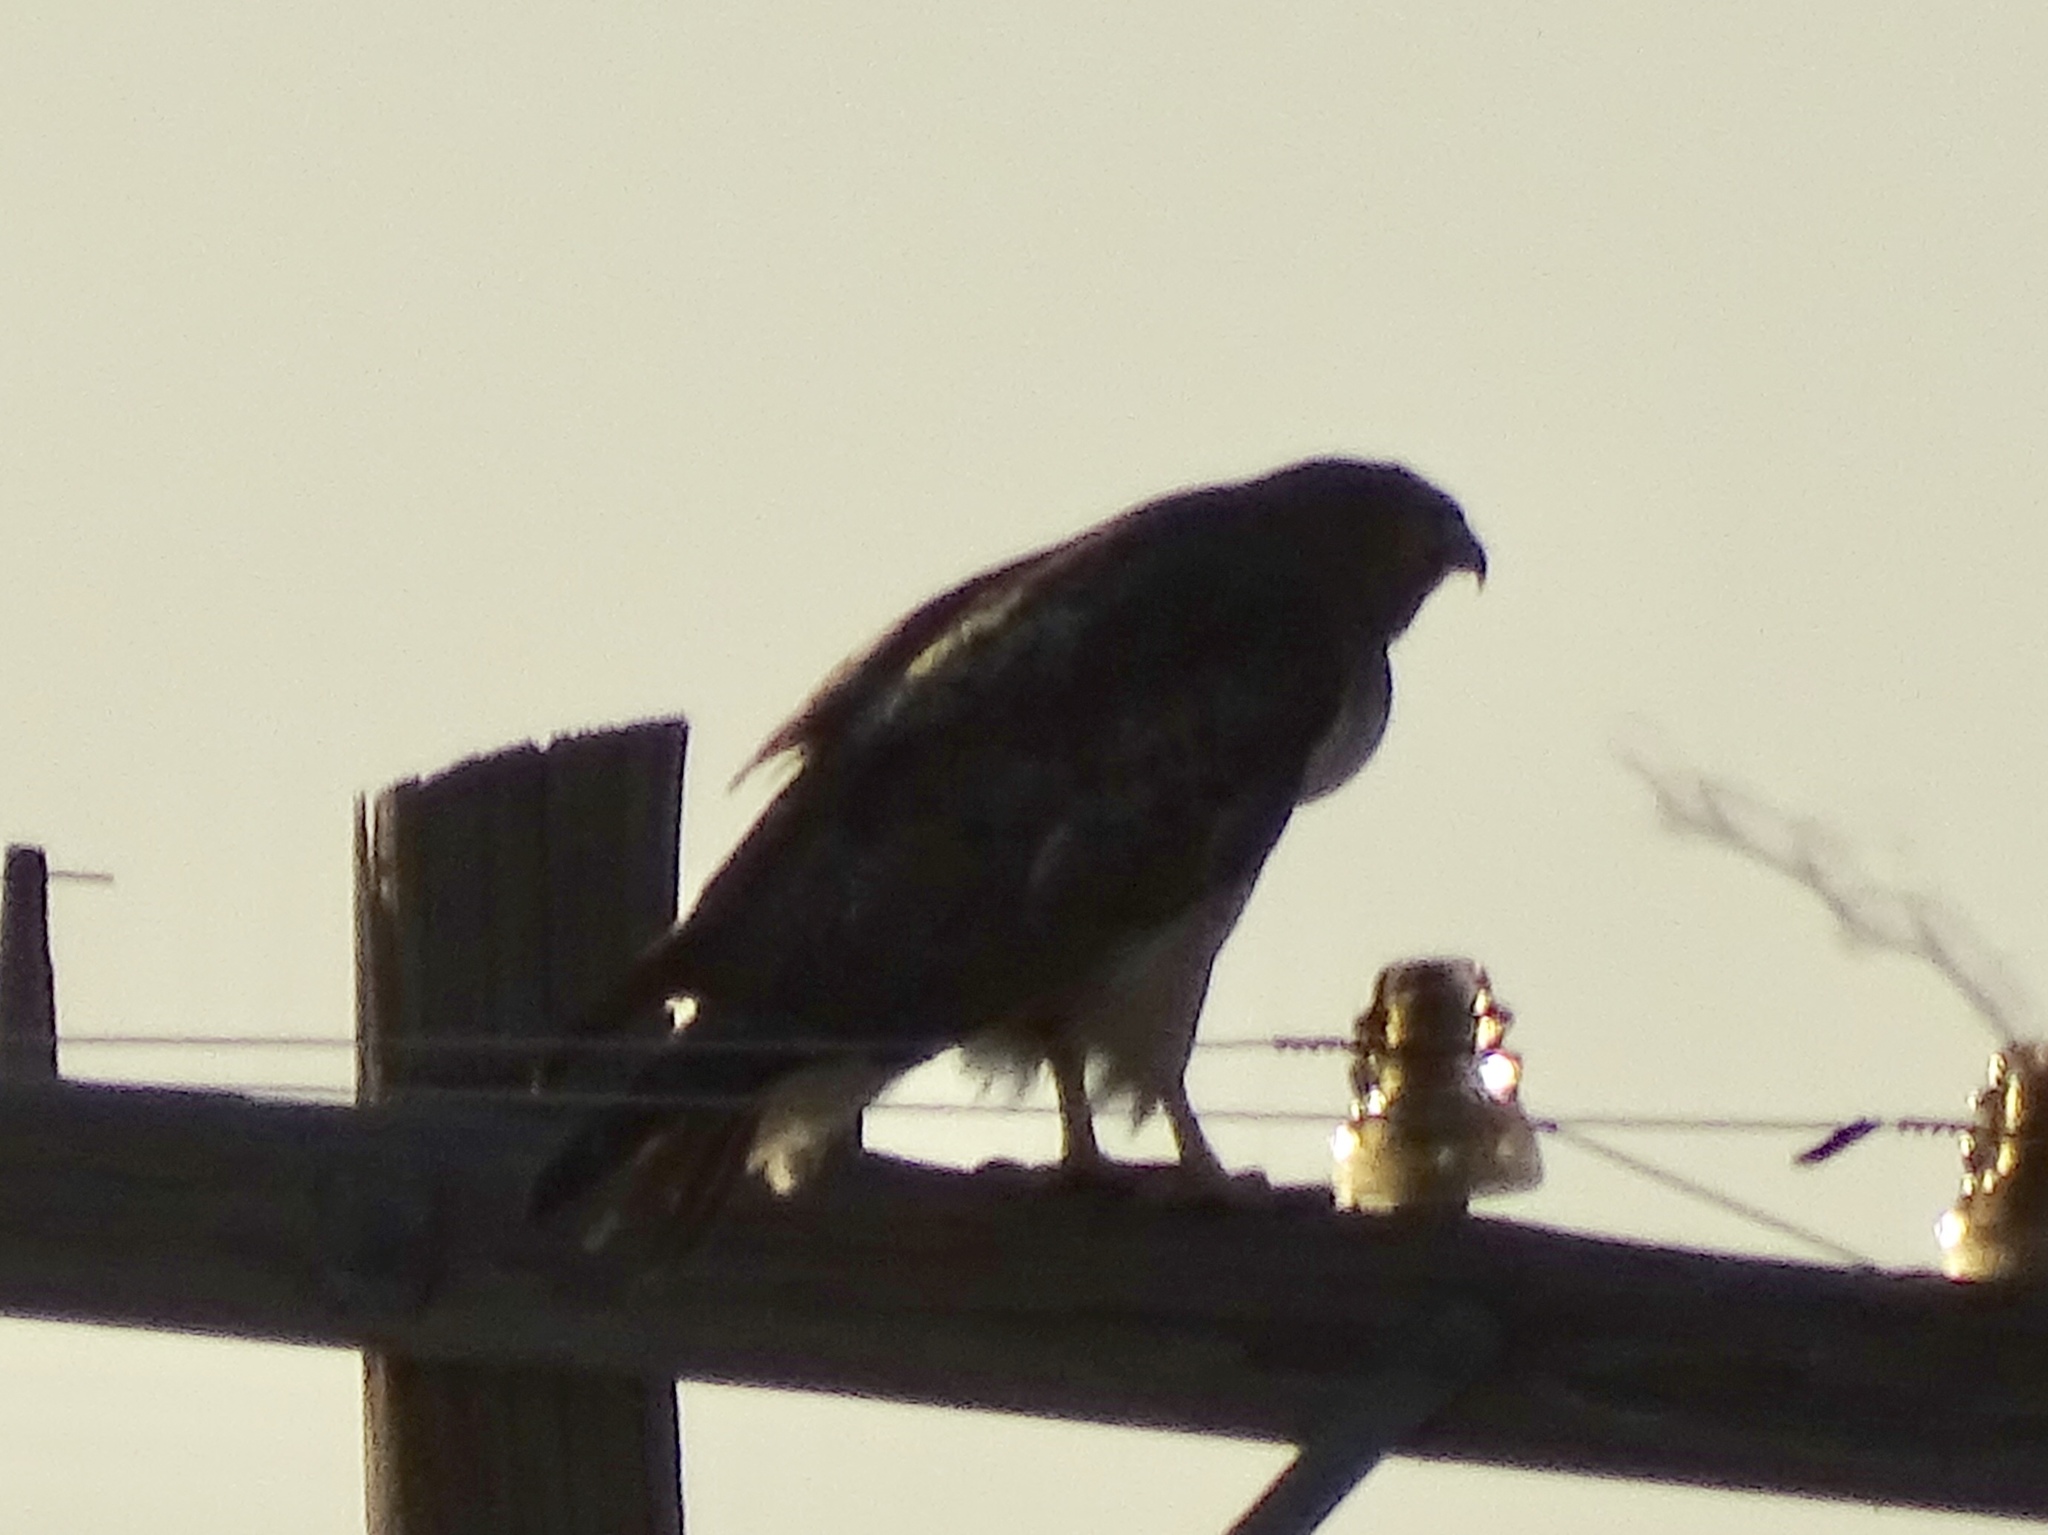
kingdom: Animalia
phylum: Chordata
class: Aves
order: Accipitriformes
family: Accipitridae
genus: Buteo
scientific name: Buteo jamaicensis
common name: Red-tailed hawk
